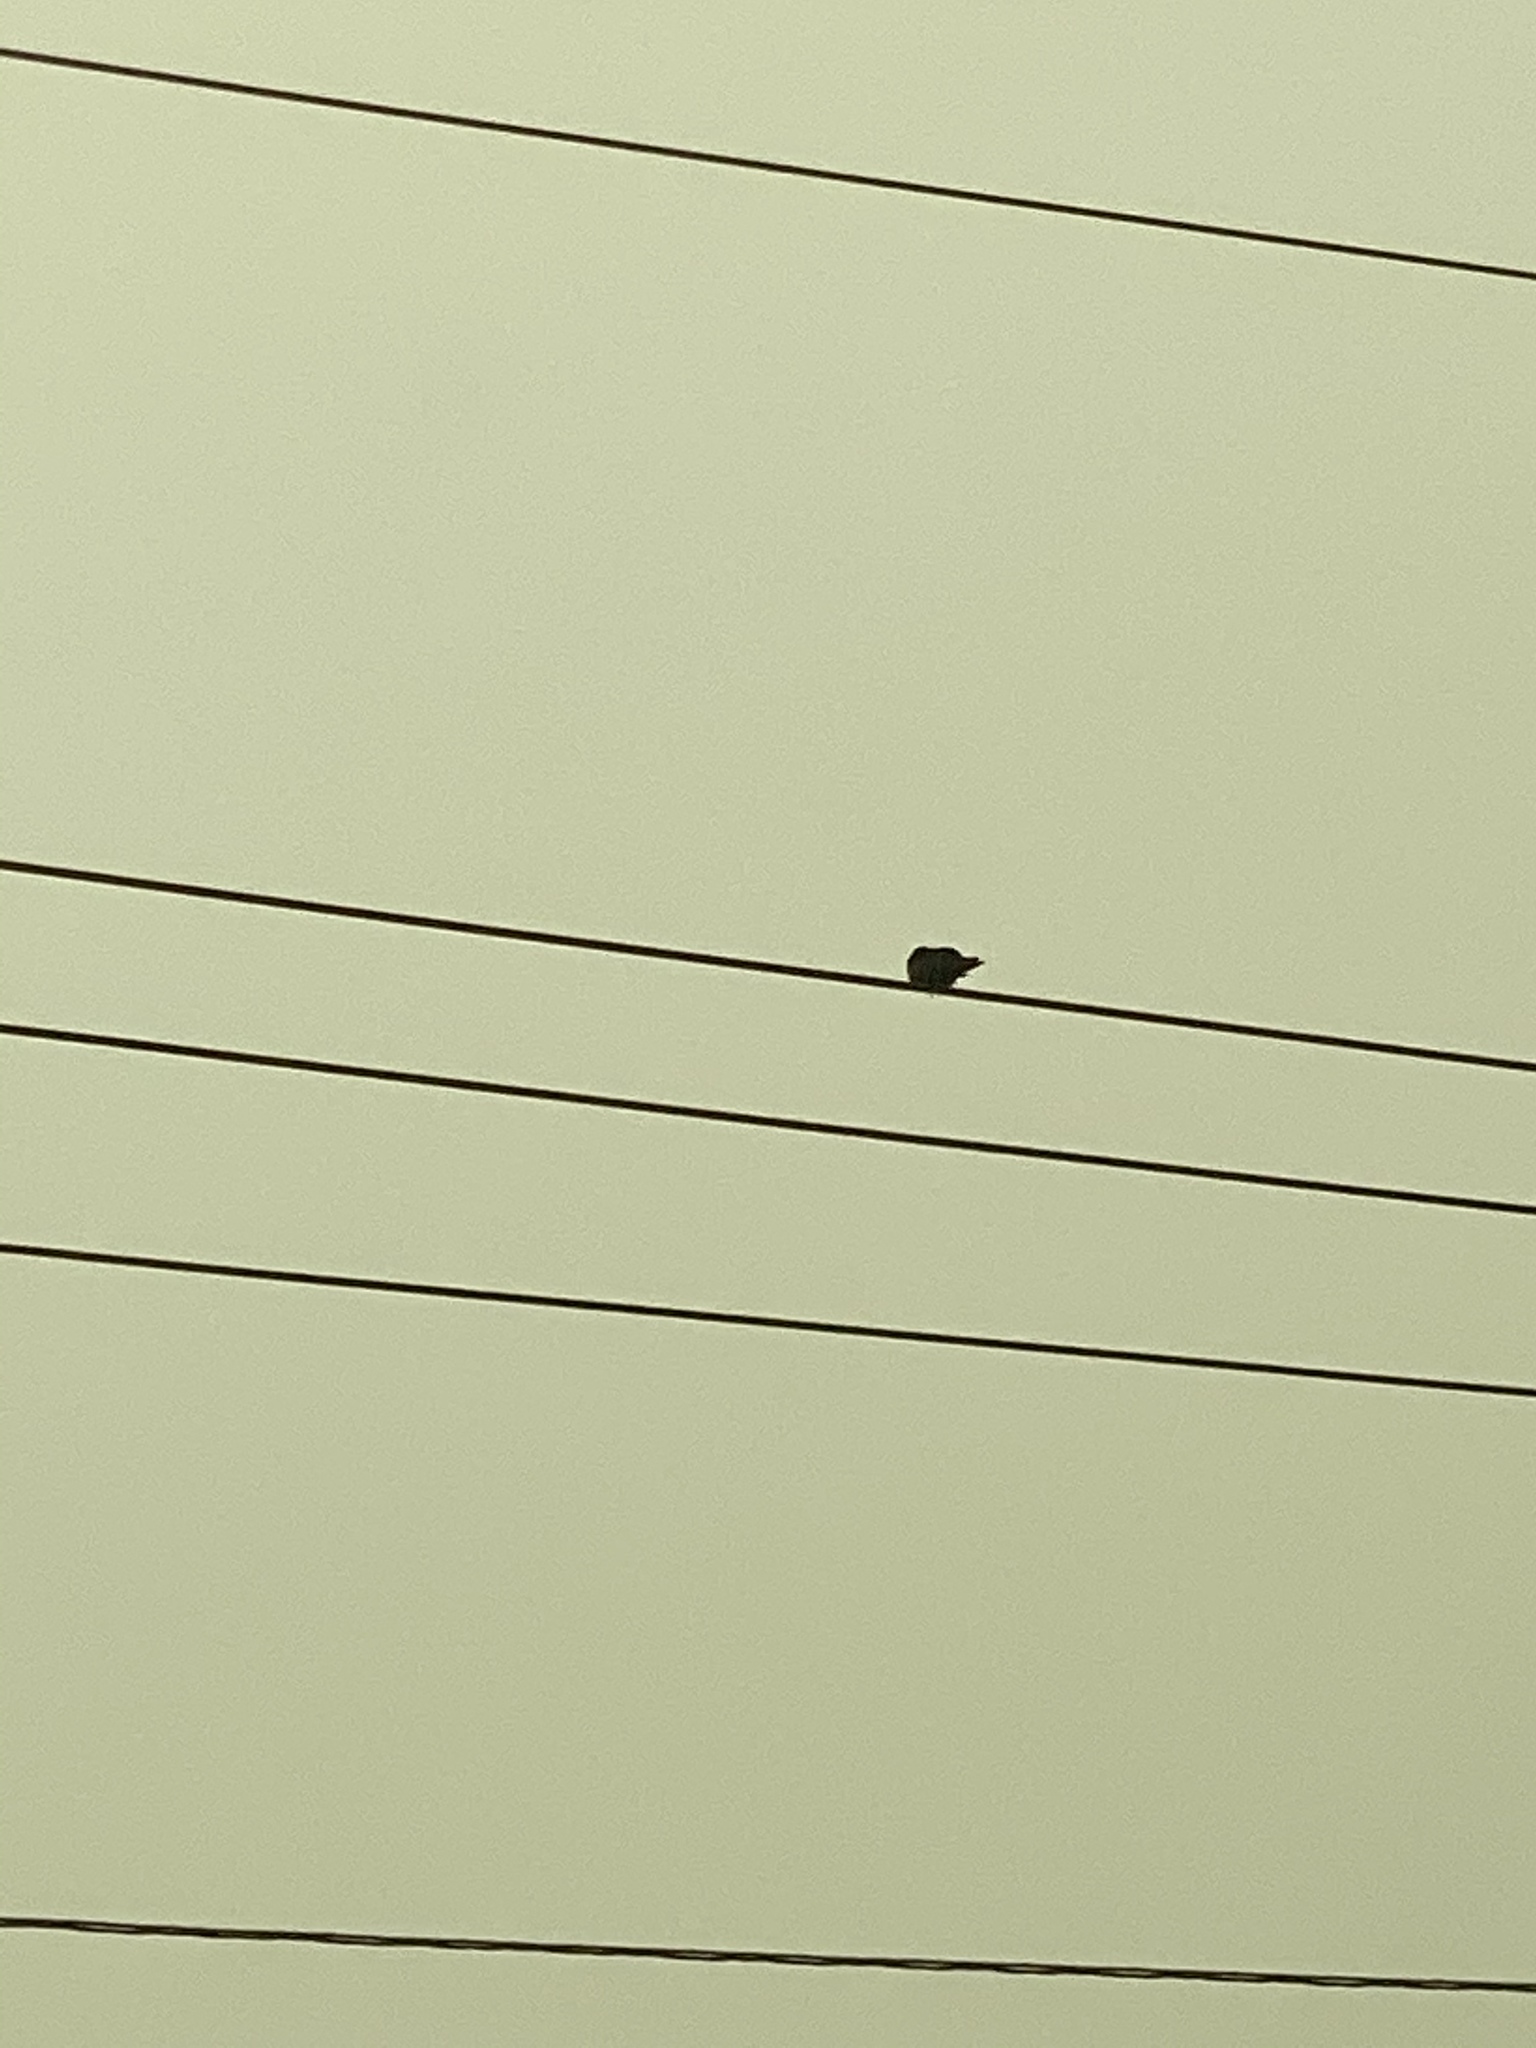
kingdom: Animalia
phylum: Chordata
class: Aves
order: Passeriformes
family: Corvidae
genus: Corvus
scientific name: Corvus brachyrhynchos
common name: American crow
